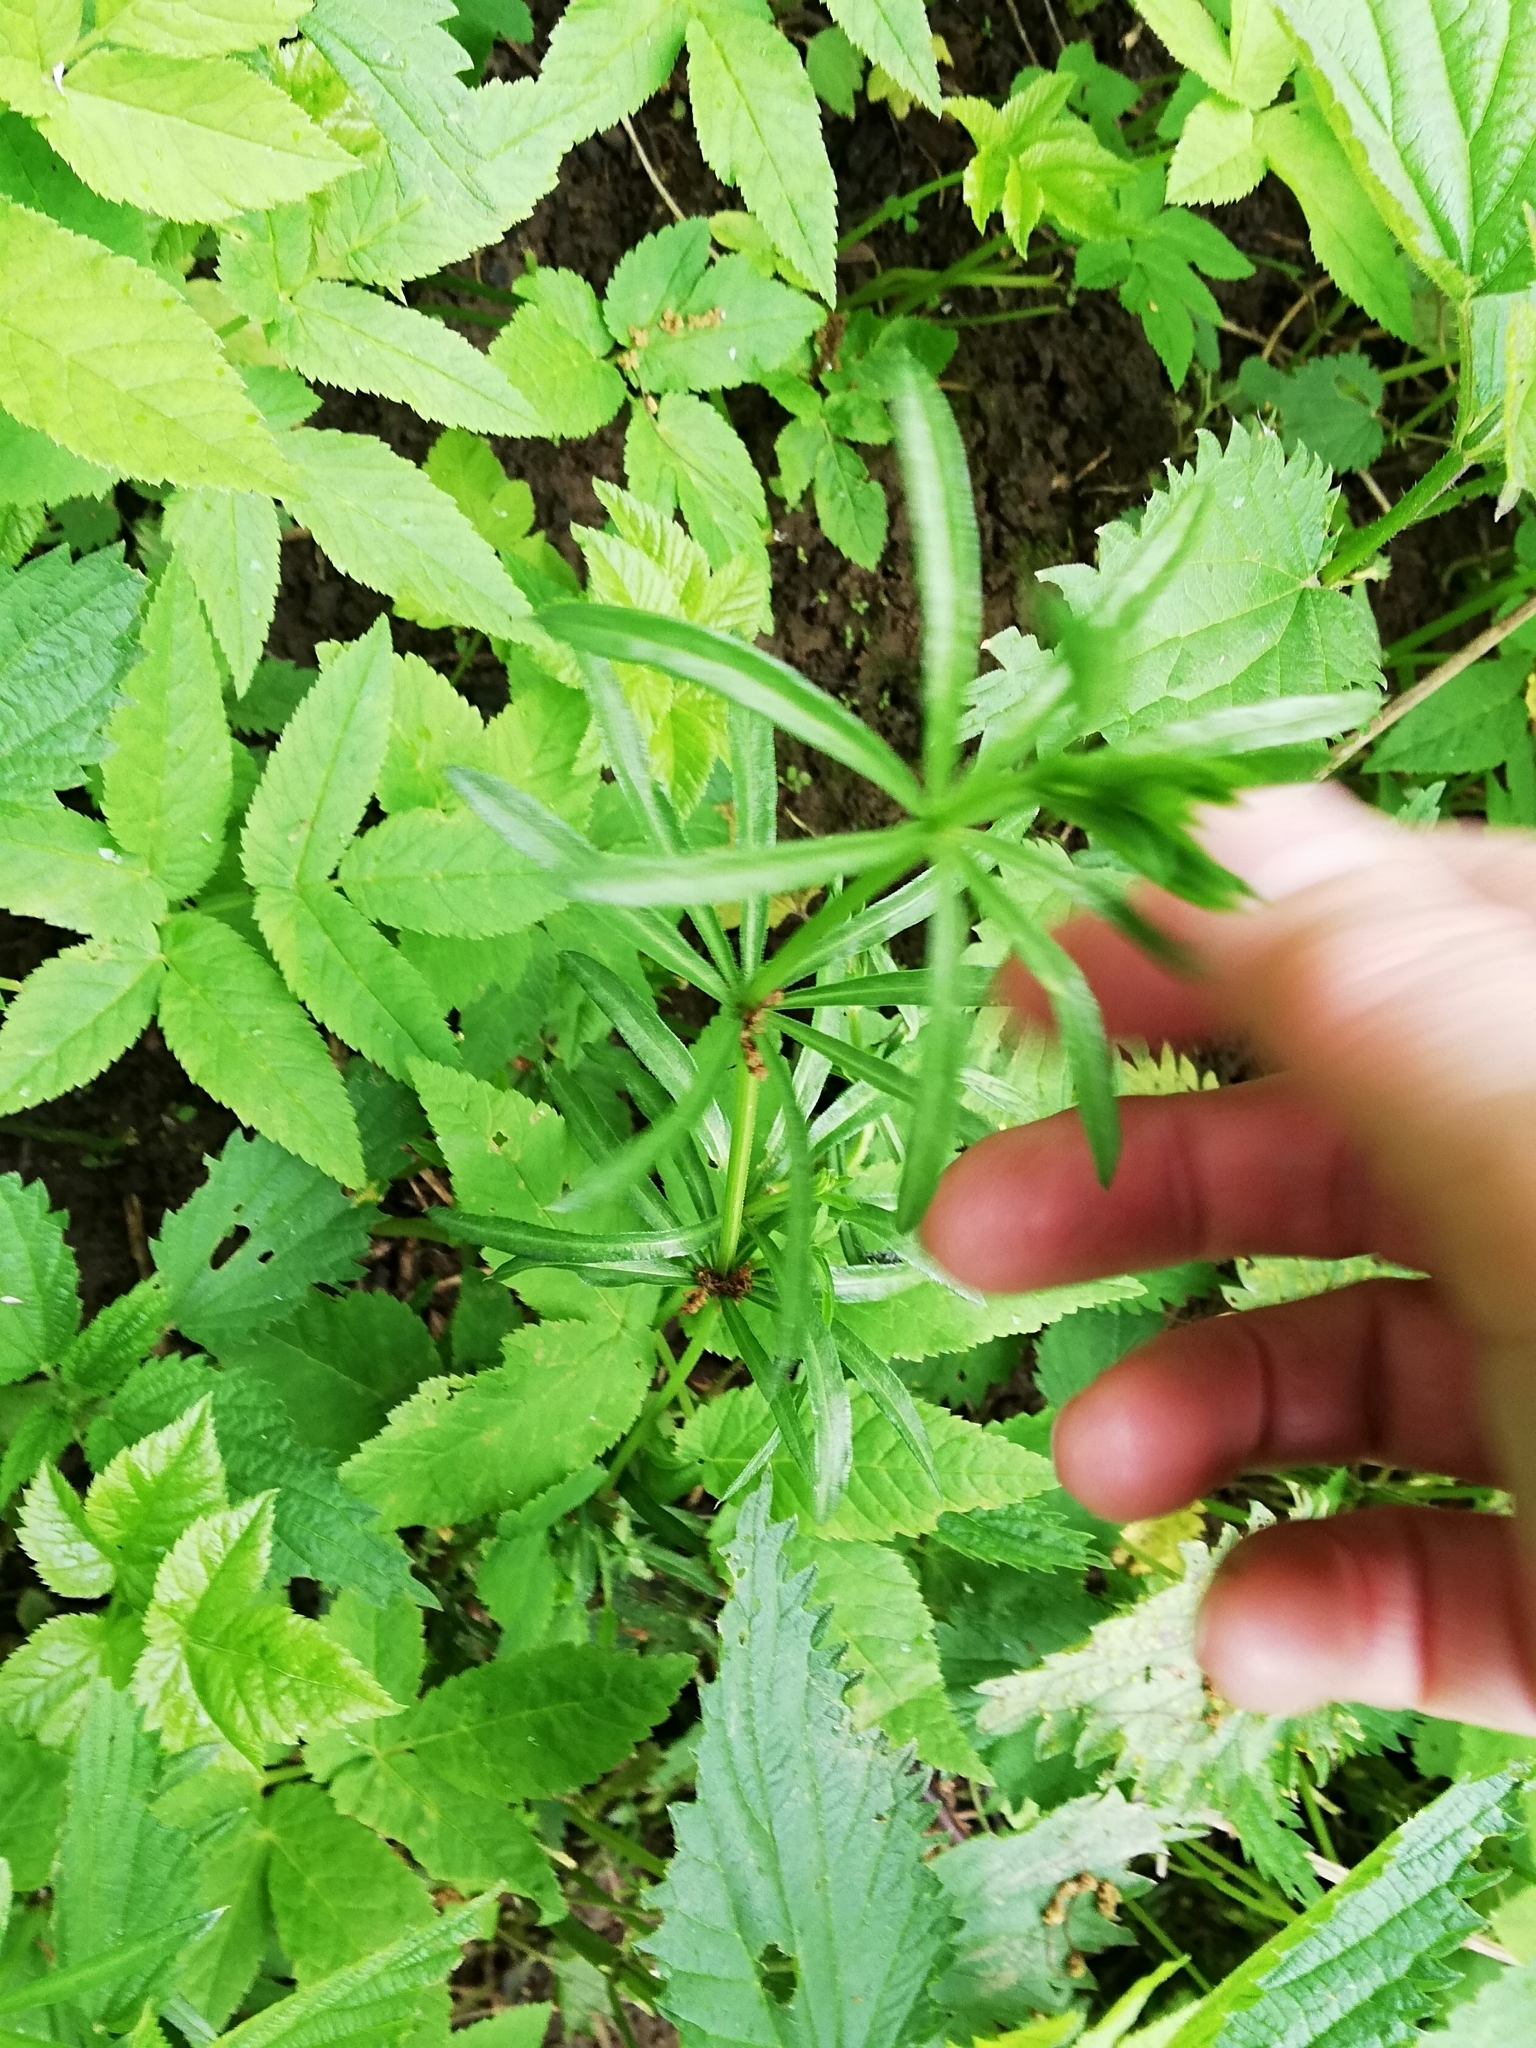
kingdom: Plantae
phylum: Tracheophyta
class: Magnoliopsida
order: Gentianales
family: Rubiaceae
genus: Galium
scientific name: Galium aparine
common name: Cleavers
